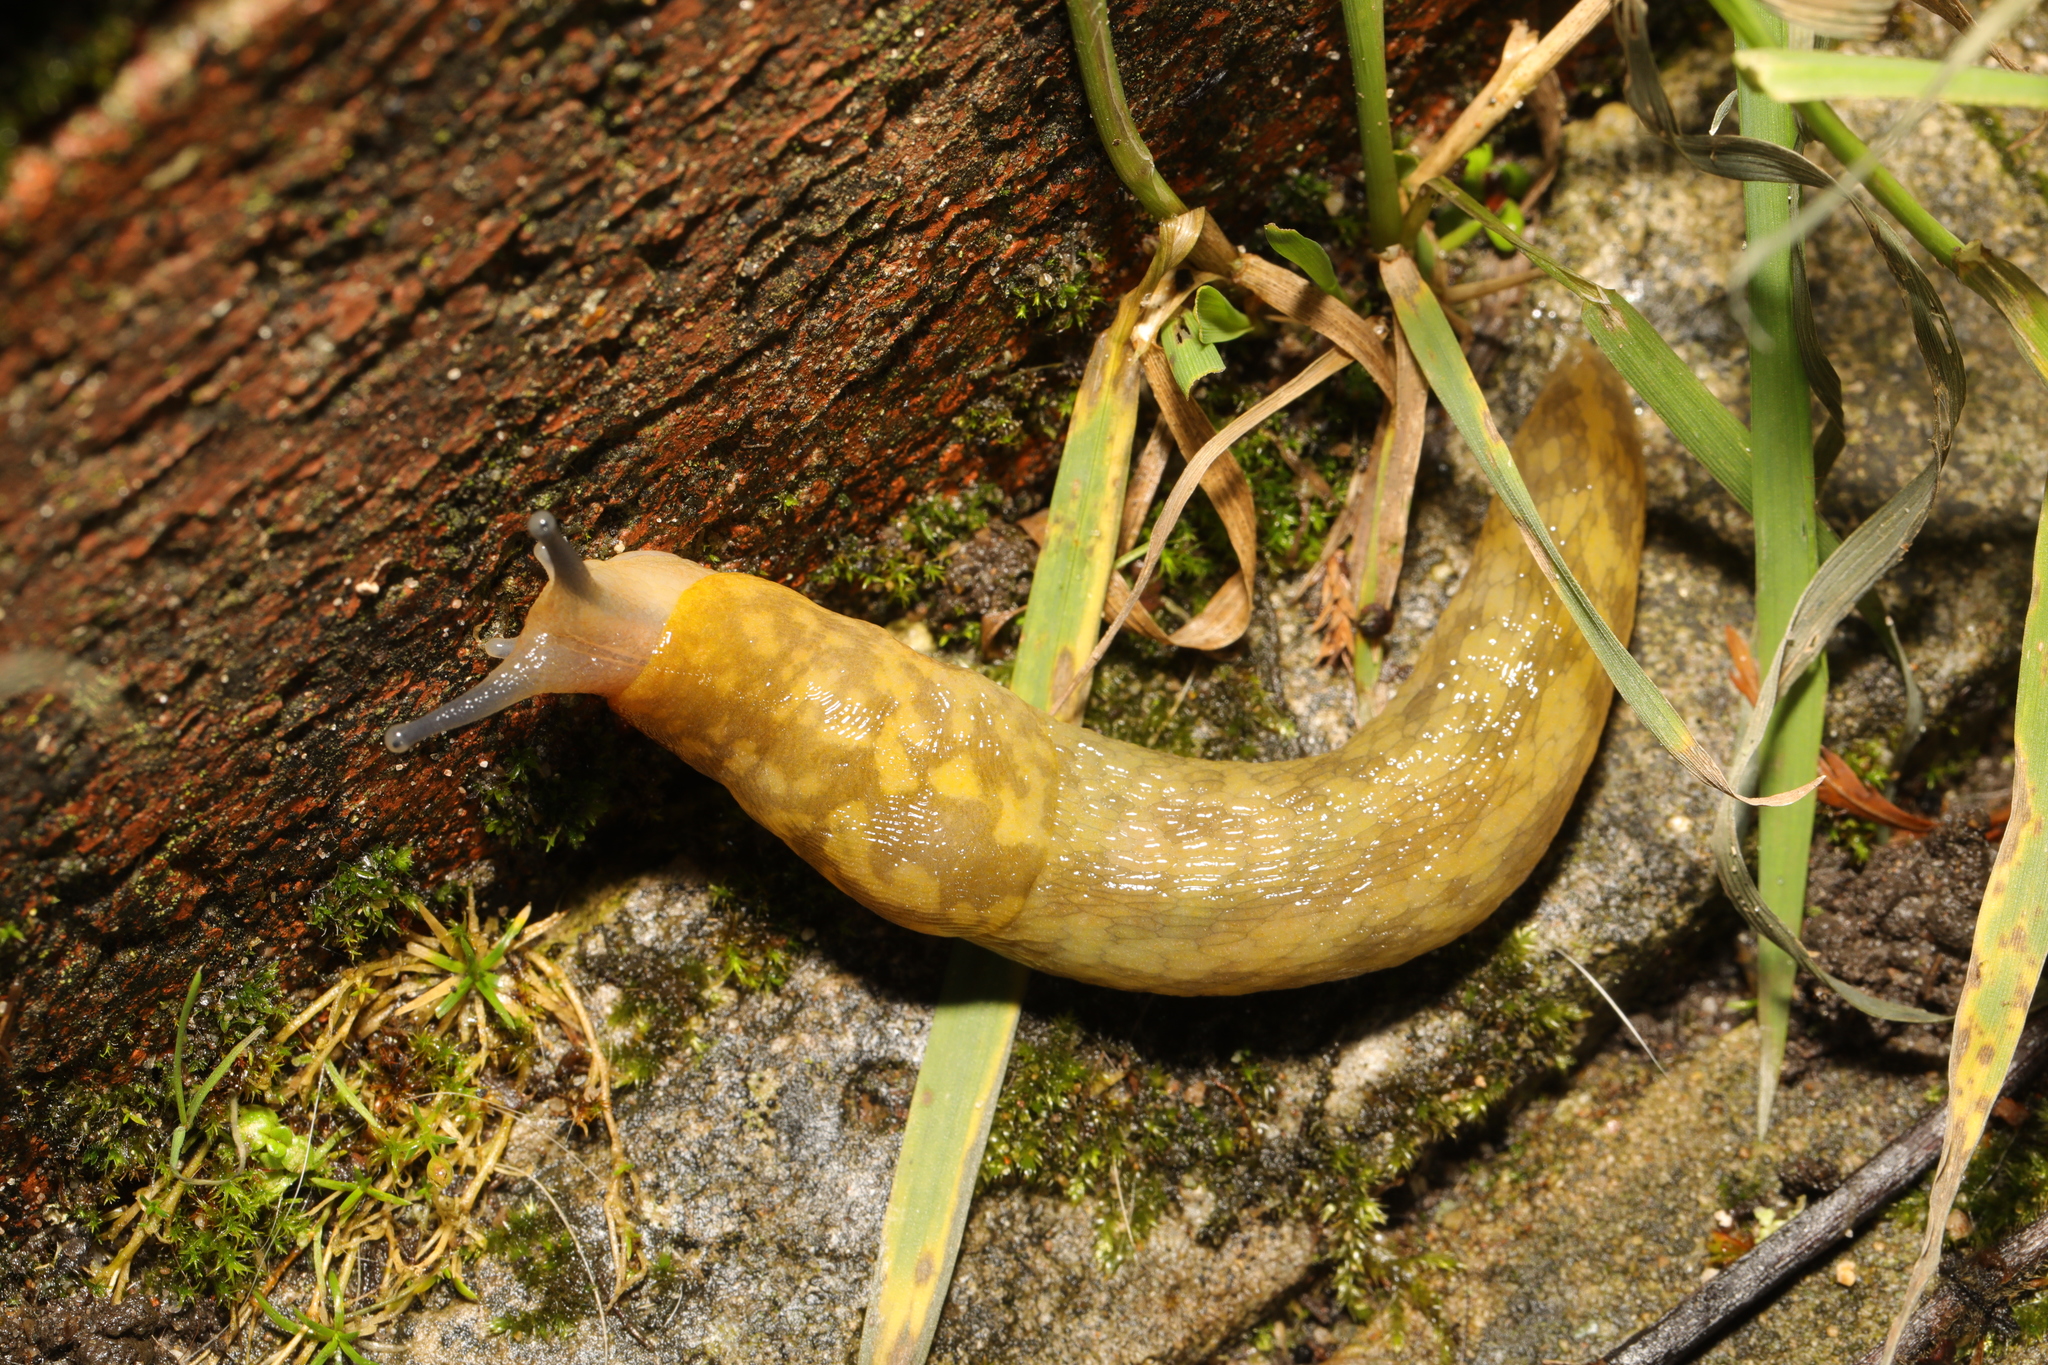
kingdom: Animalia
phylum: Mollusca
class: Gastropoda
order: Stylommatophora
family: Limacidae
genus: Limacus
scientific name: Limacus maculatus
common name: Irish yellow slug
